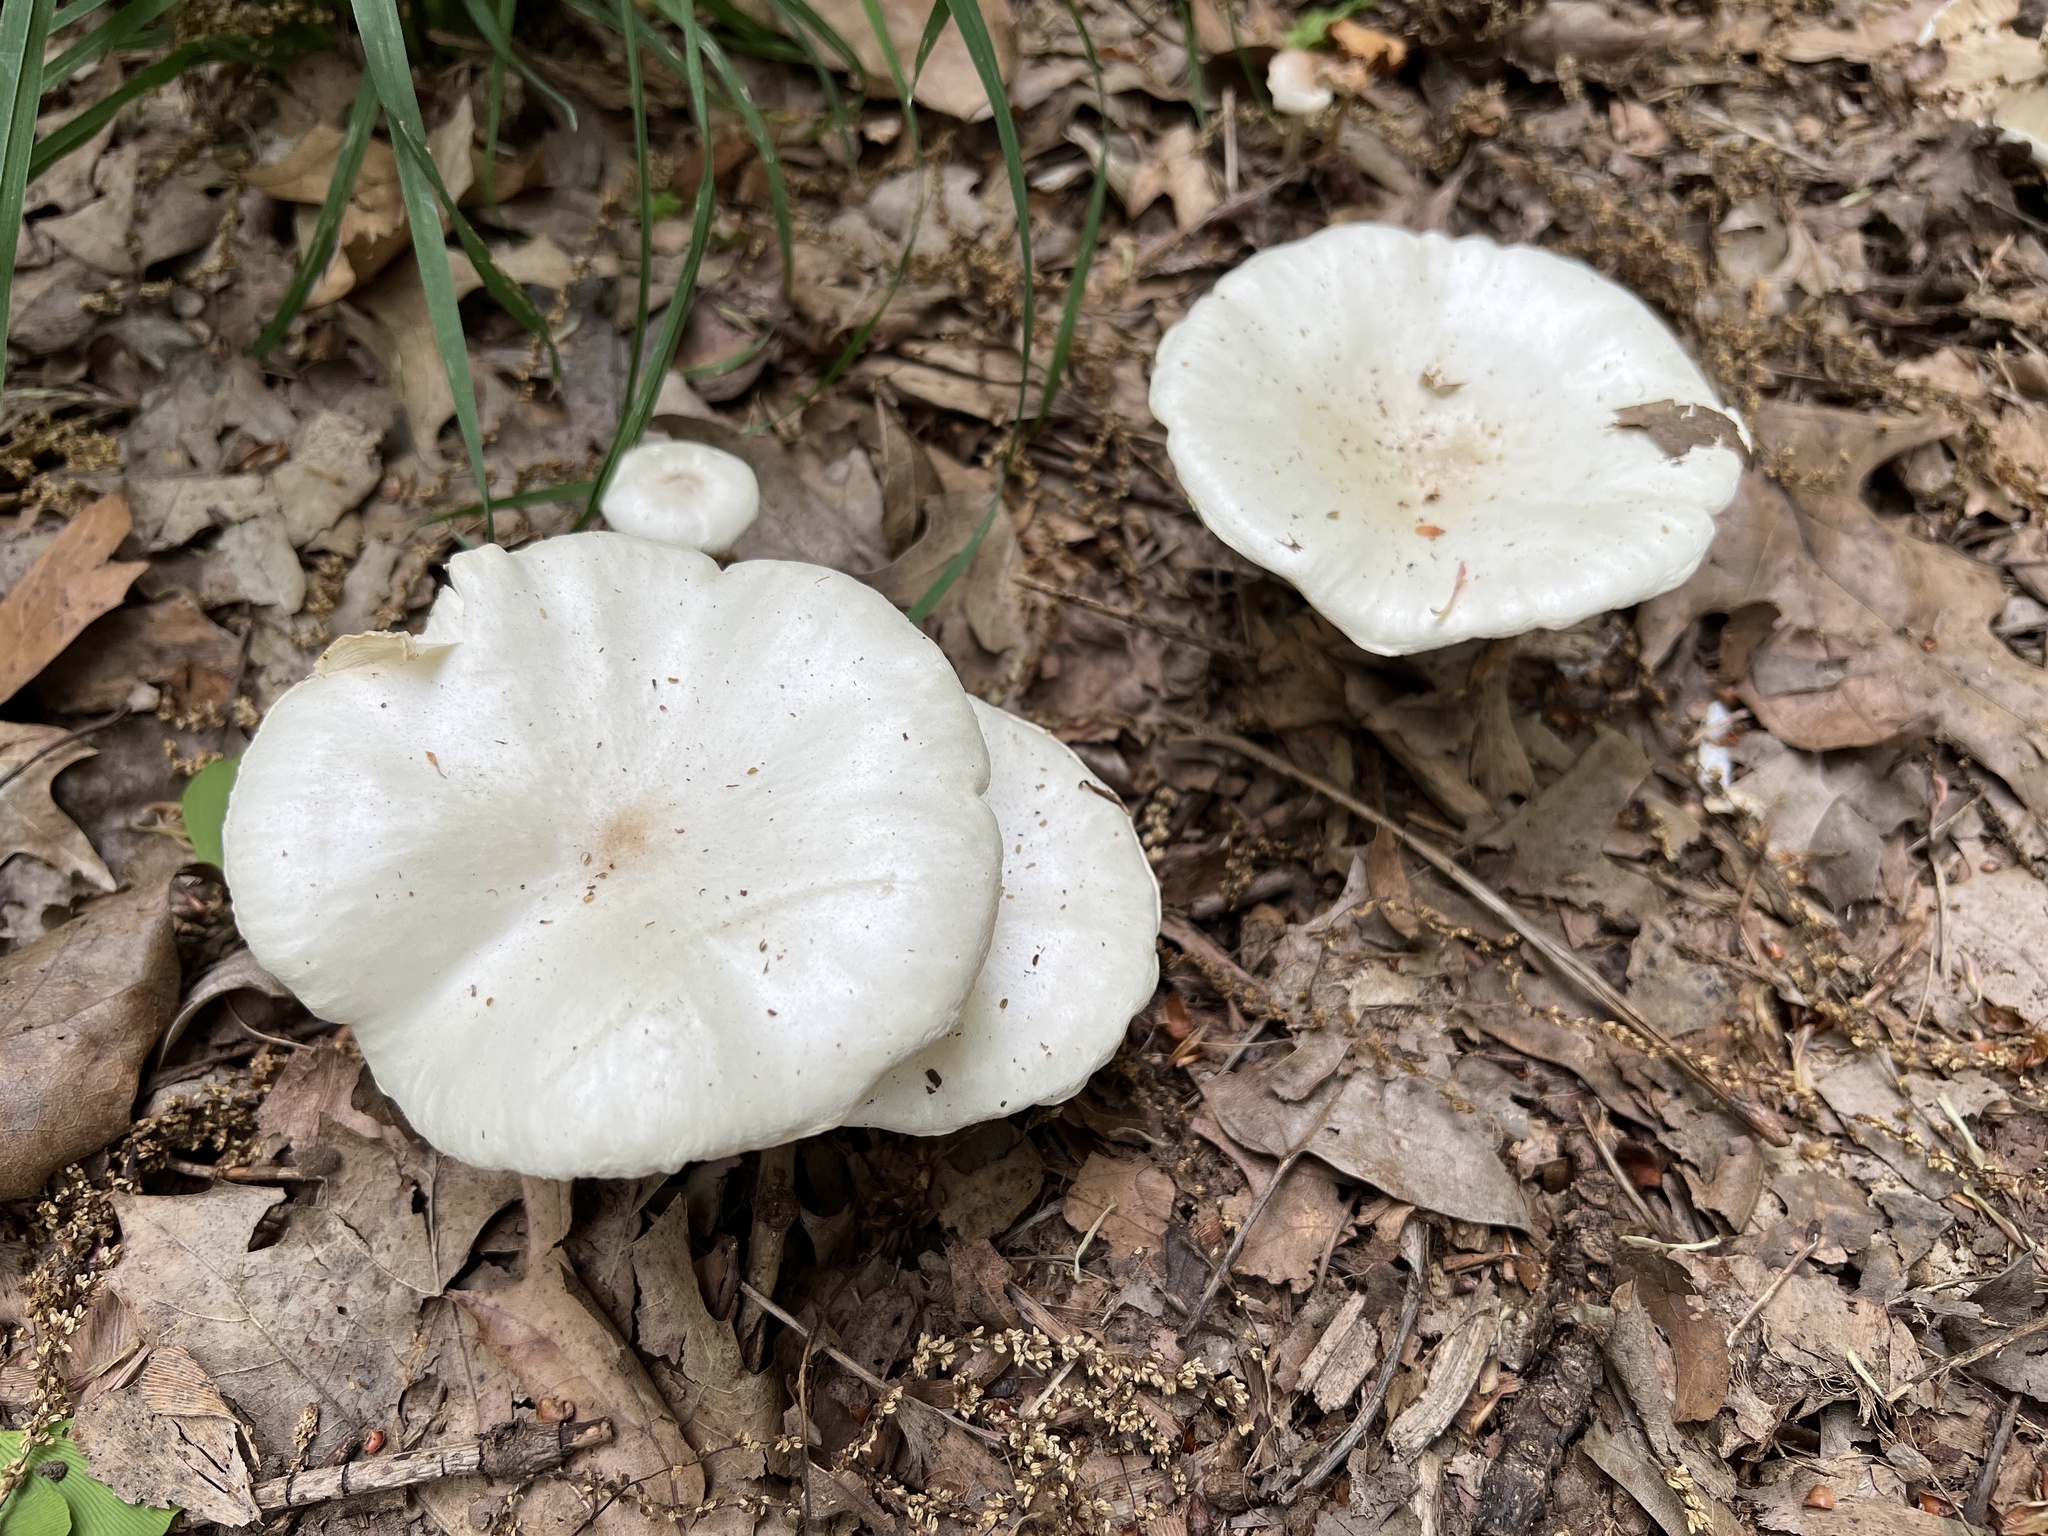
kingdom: Fungi
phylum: Basidiomycota
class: Agaricomycetes
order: Agaricales
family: Tricholomataceae
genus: Melanoleuca
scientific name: Melanoleuca verrucipes
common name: Warty cavalier
